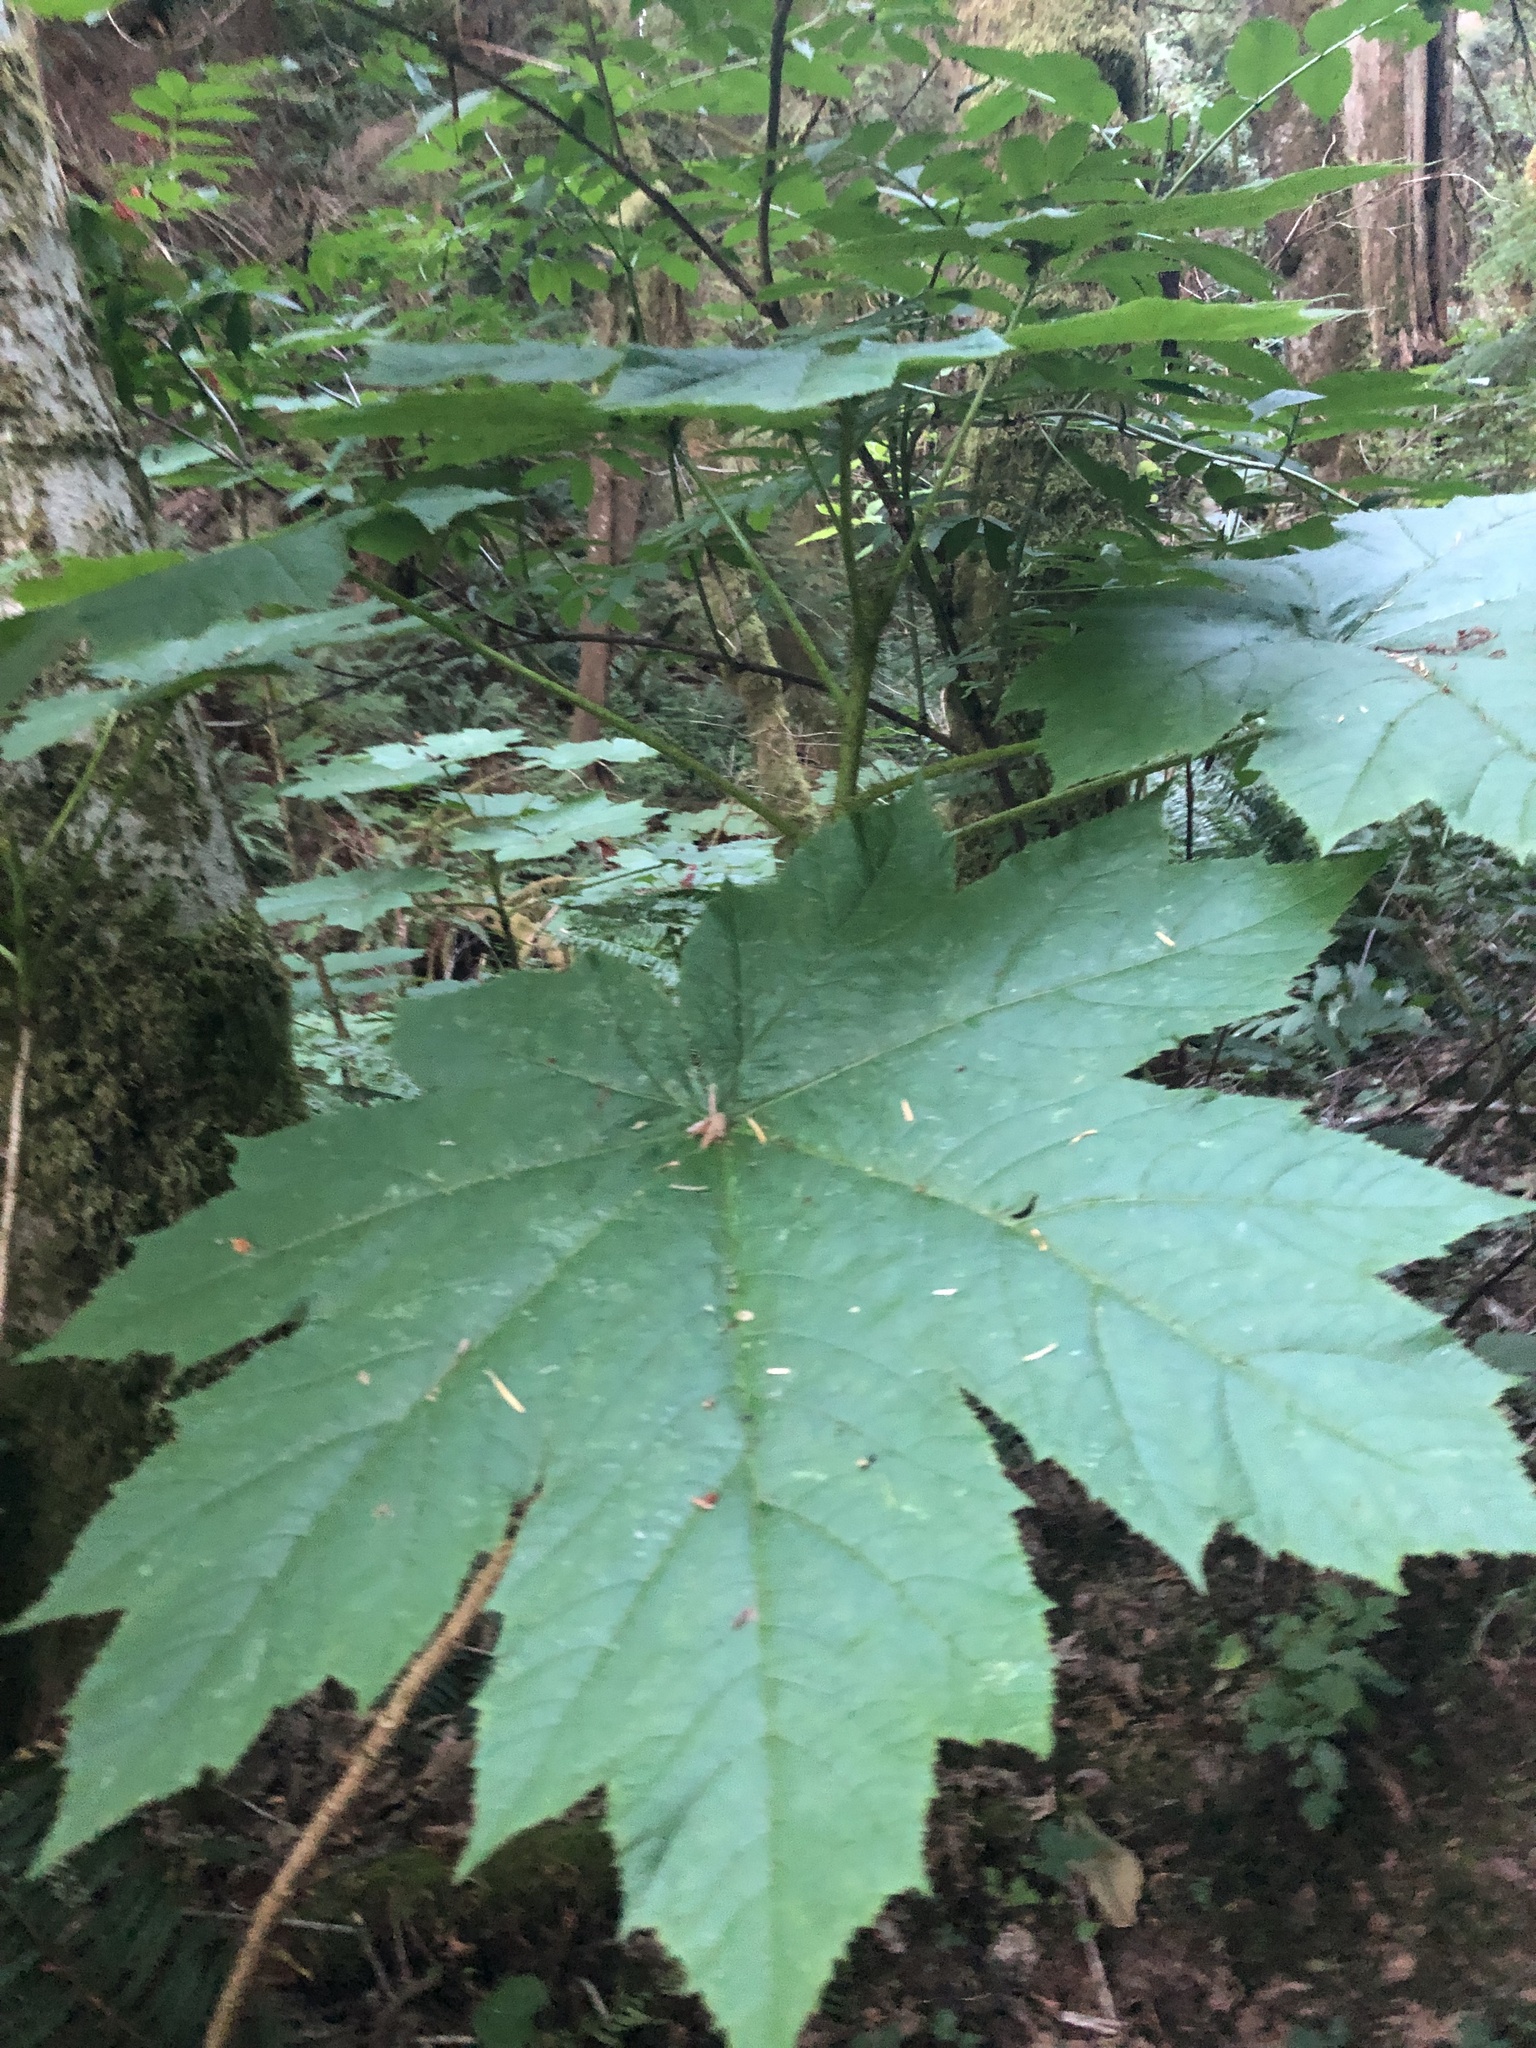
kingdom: Plantae
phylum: Tracheophyta
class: Magnoliopsida
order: Apiales
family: Araliaceae
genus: Oplopanax
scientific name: Oplopanax horridus
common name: Devil's walking-stick
